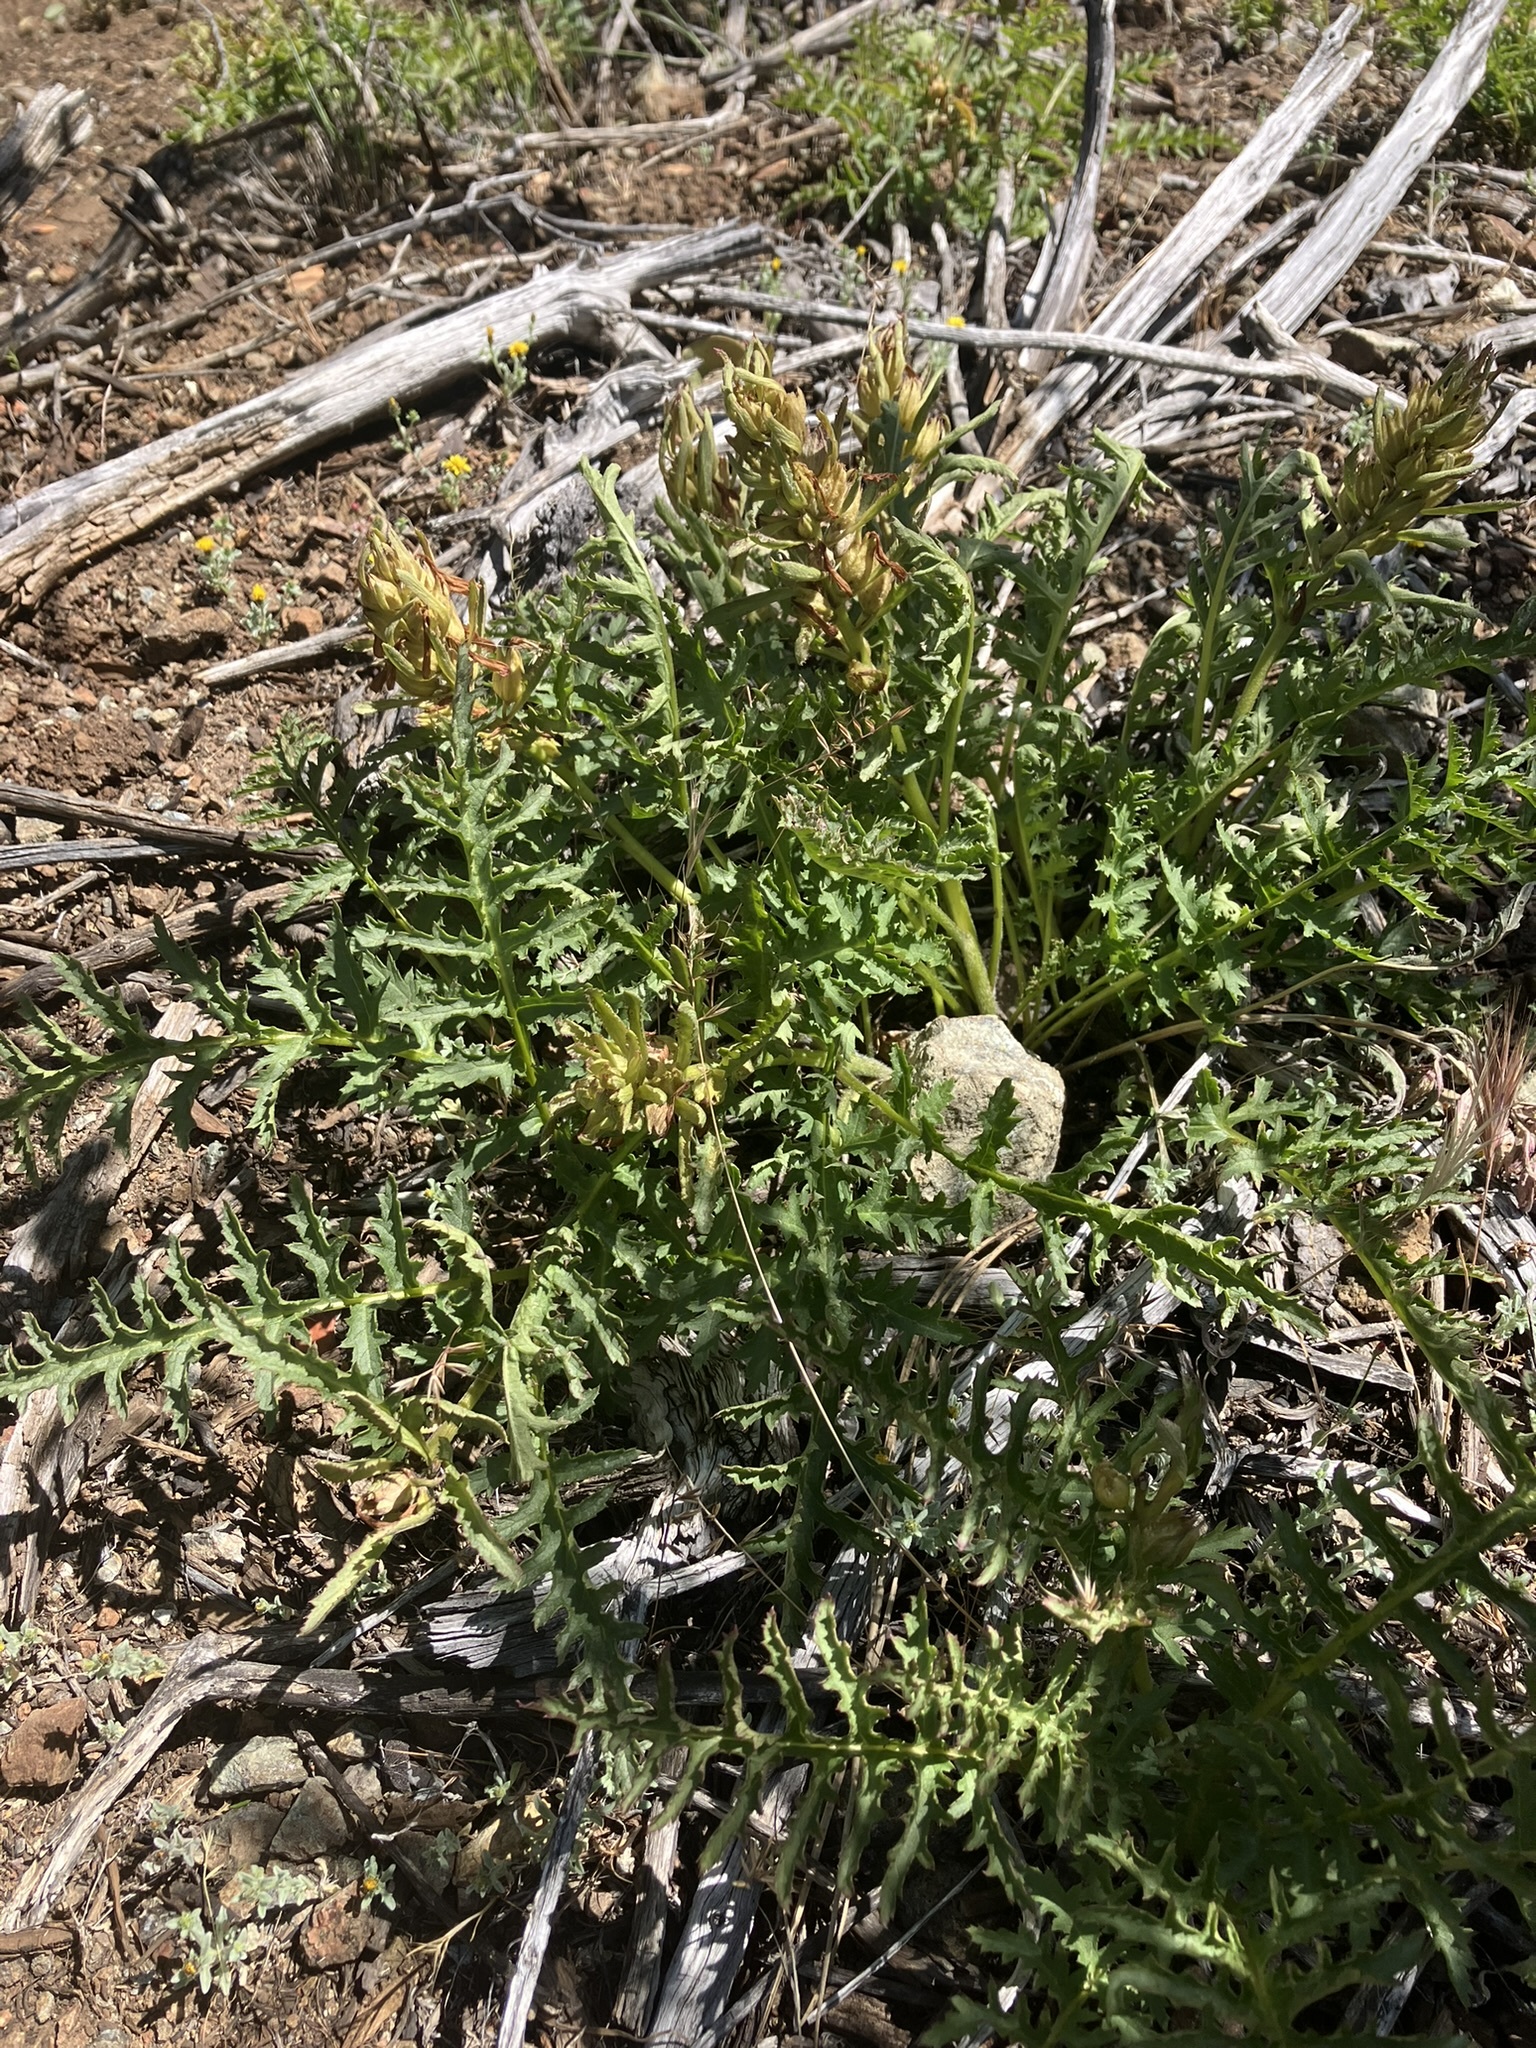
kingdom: Plantae
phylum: Tracheophyta
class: Magnoliopsida
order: Lamiales
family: Orobanchaceae
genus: Pedicularis
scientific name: Pedicularis densiflora
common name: Indian warrior
